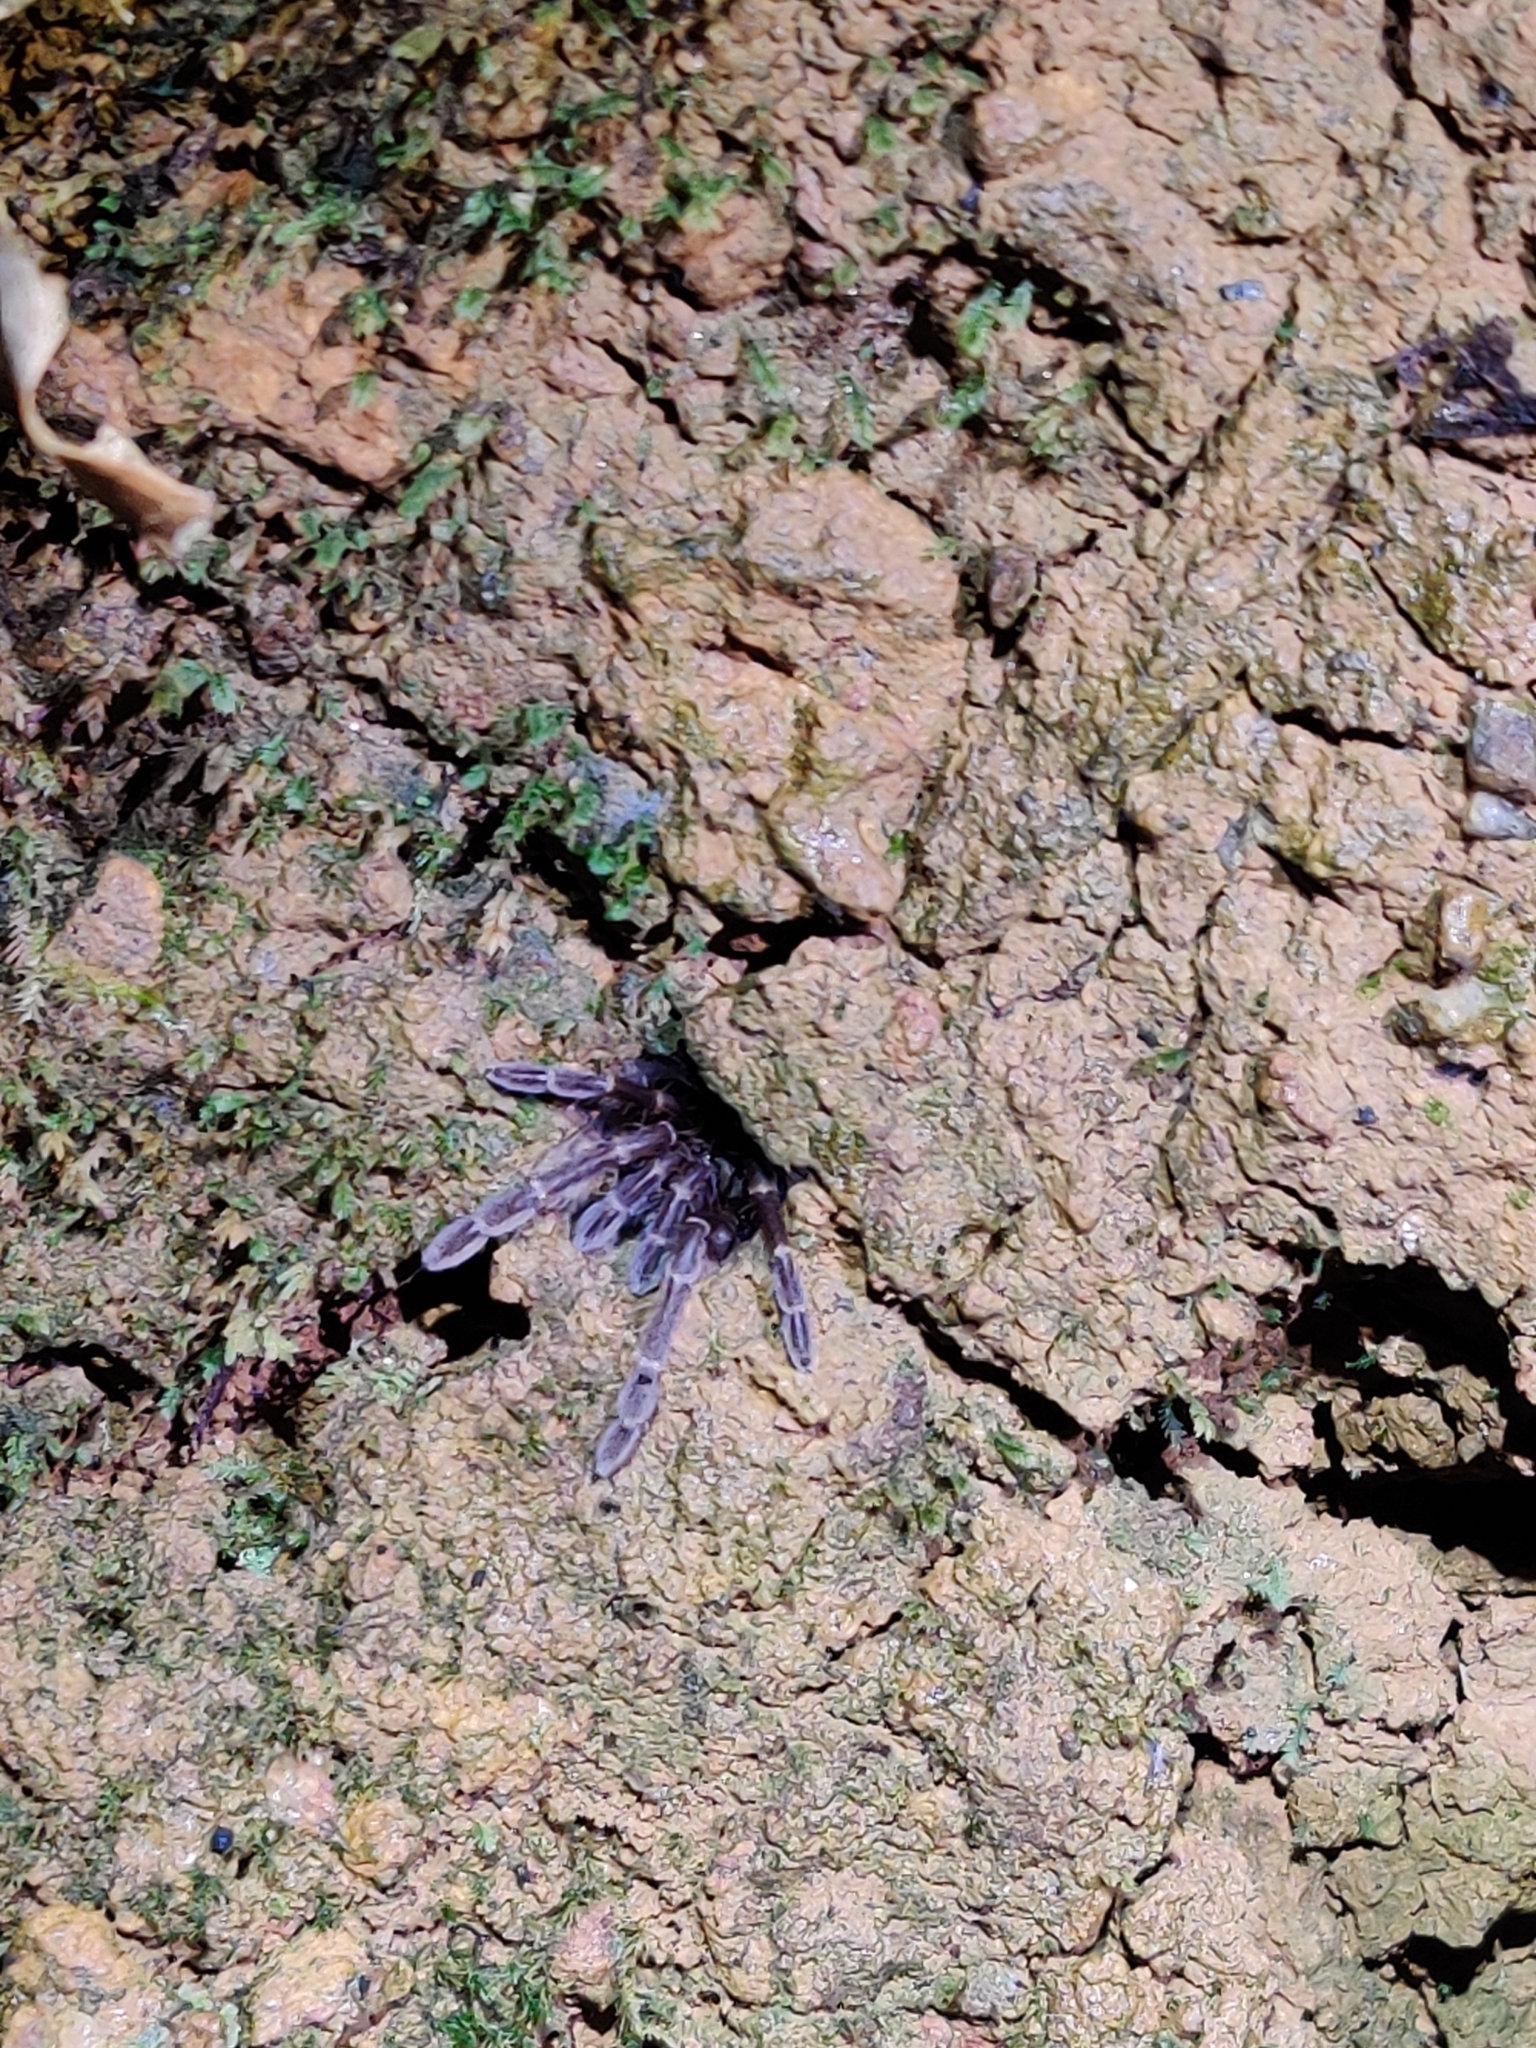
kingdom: Animalia
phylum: Arthropoda
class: Arachnida
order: Araneae
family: Theraphosidae
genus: Thrigmopoeus
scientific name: Thrigmopoeus truculentus
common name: Karwar large burrowing spider
